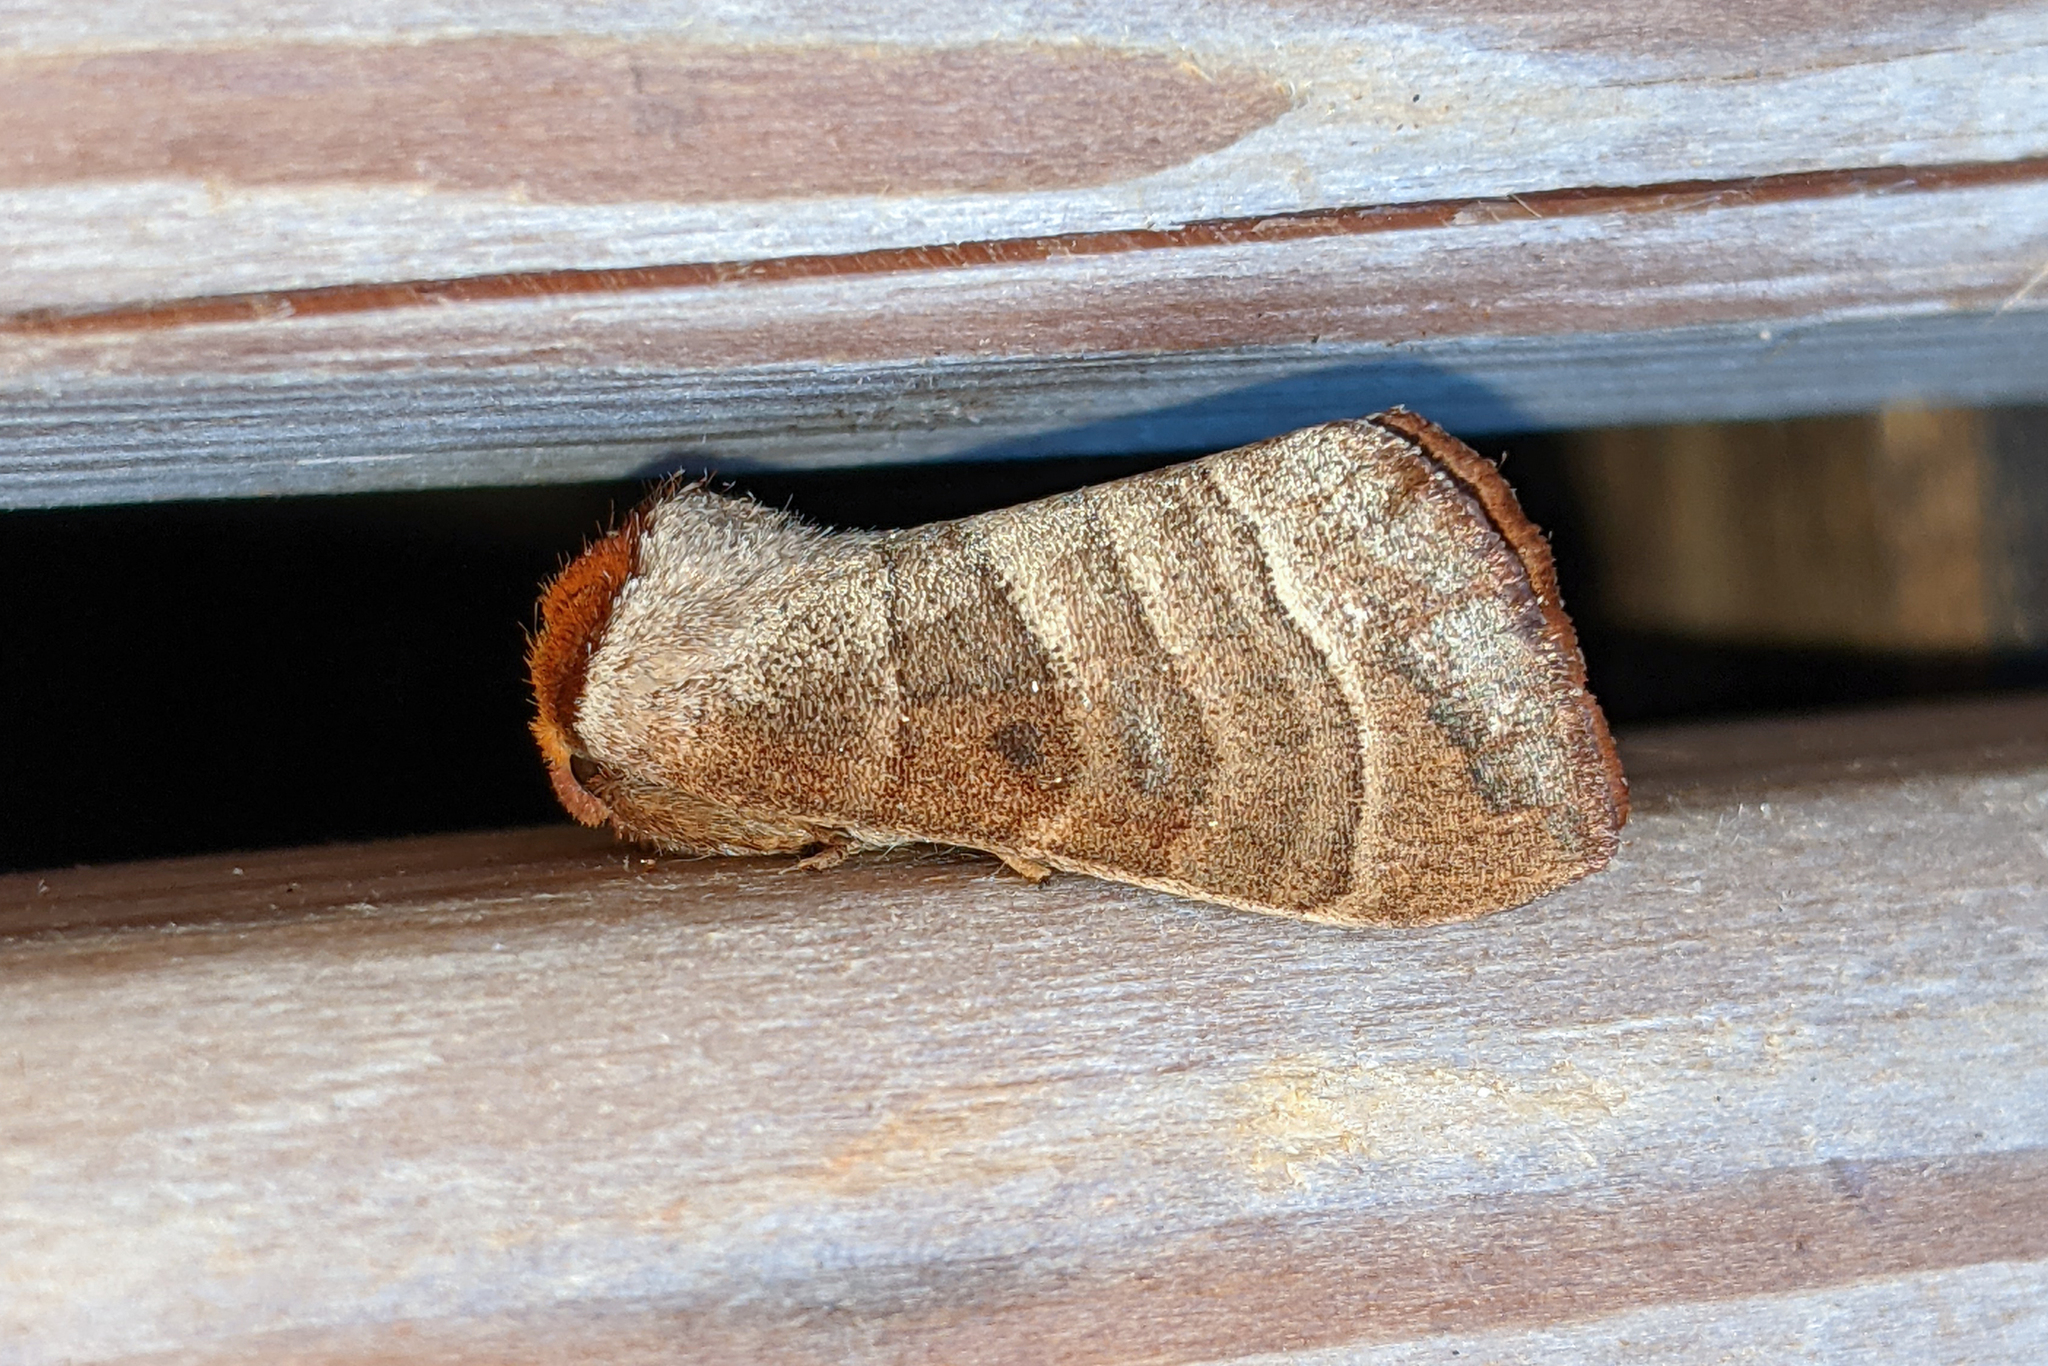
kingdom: Animalia
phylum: Arthropoda
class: Insecta
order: Lepidoptera
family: Notodontidae
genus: Datana
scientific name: Datana integerrima
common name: Walnut caterpillar
